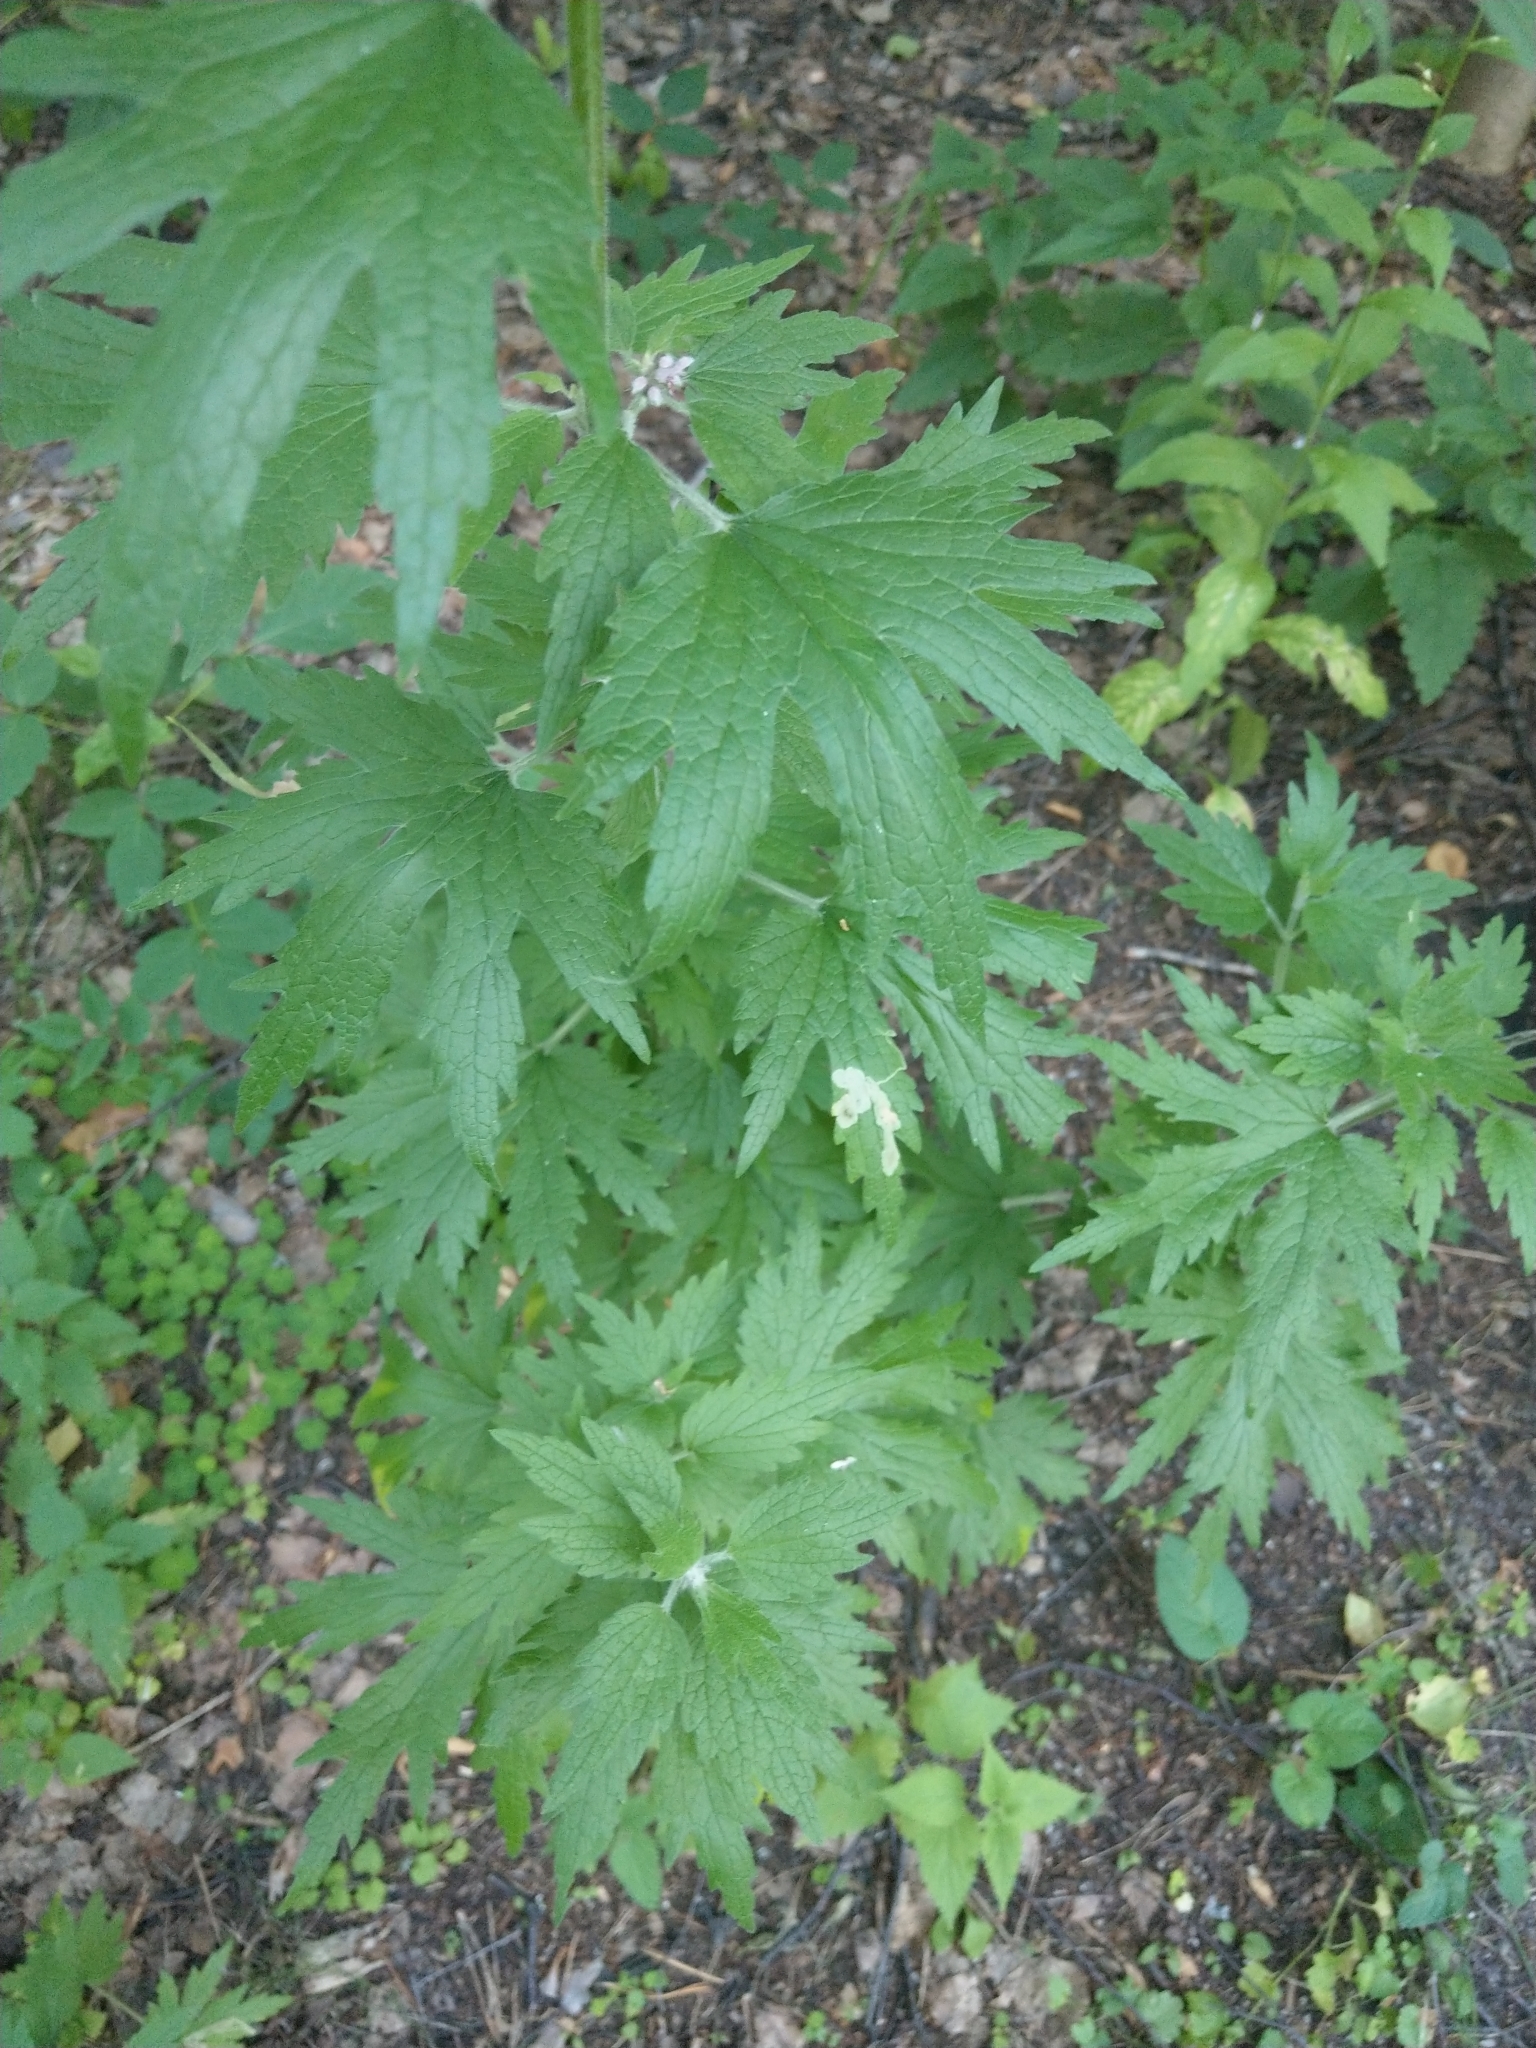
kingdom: Plantae
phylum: Tracheophyta
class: Magnoliopsida
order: Lamiales
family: Lamiaceae
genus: Leonurus
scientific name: Leonurus quinquelobatus
